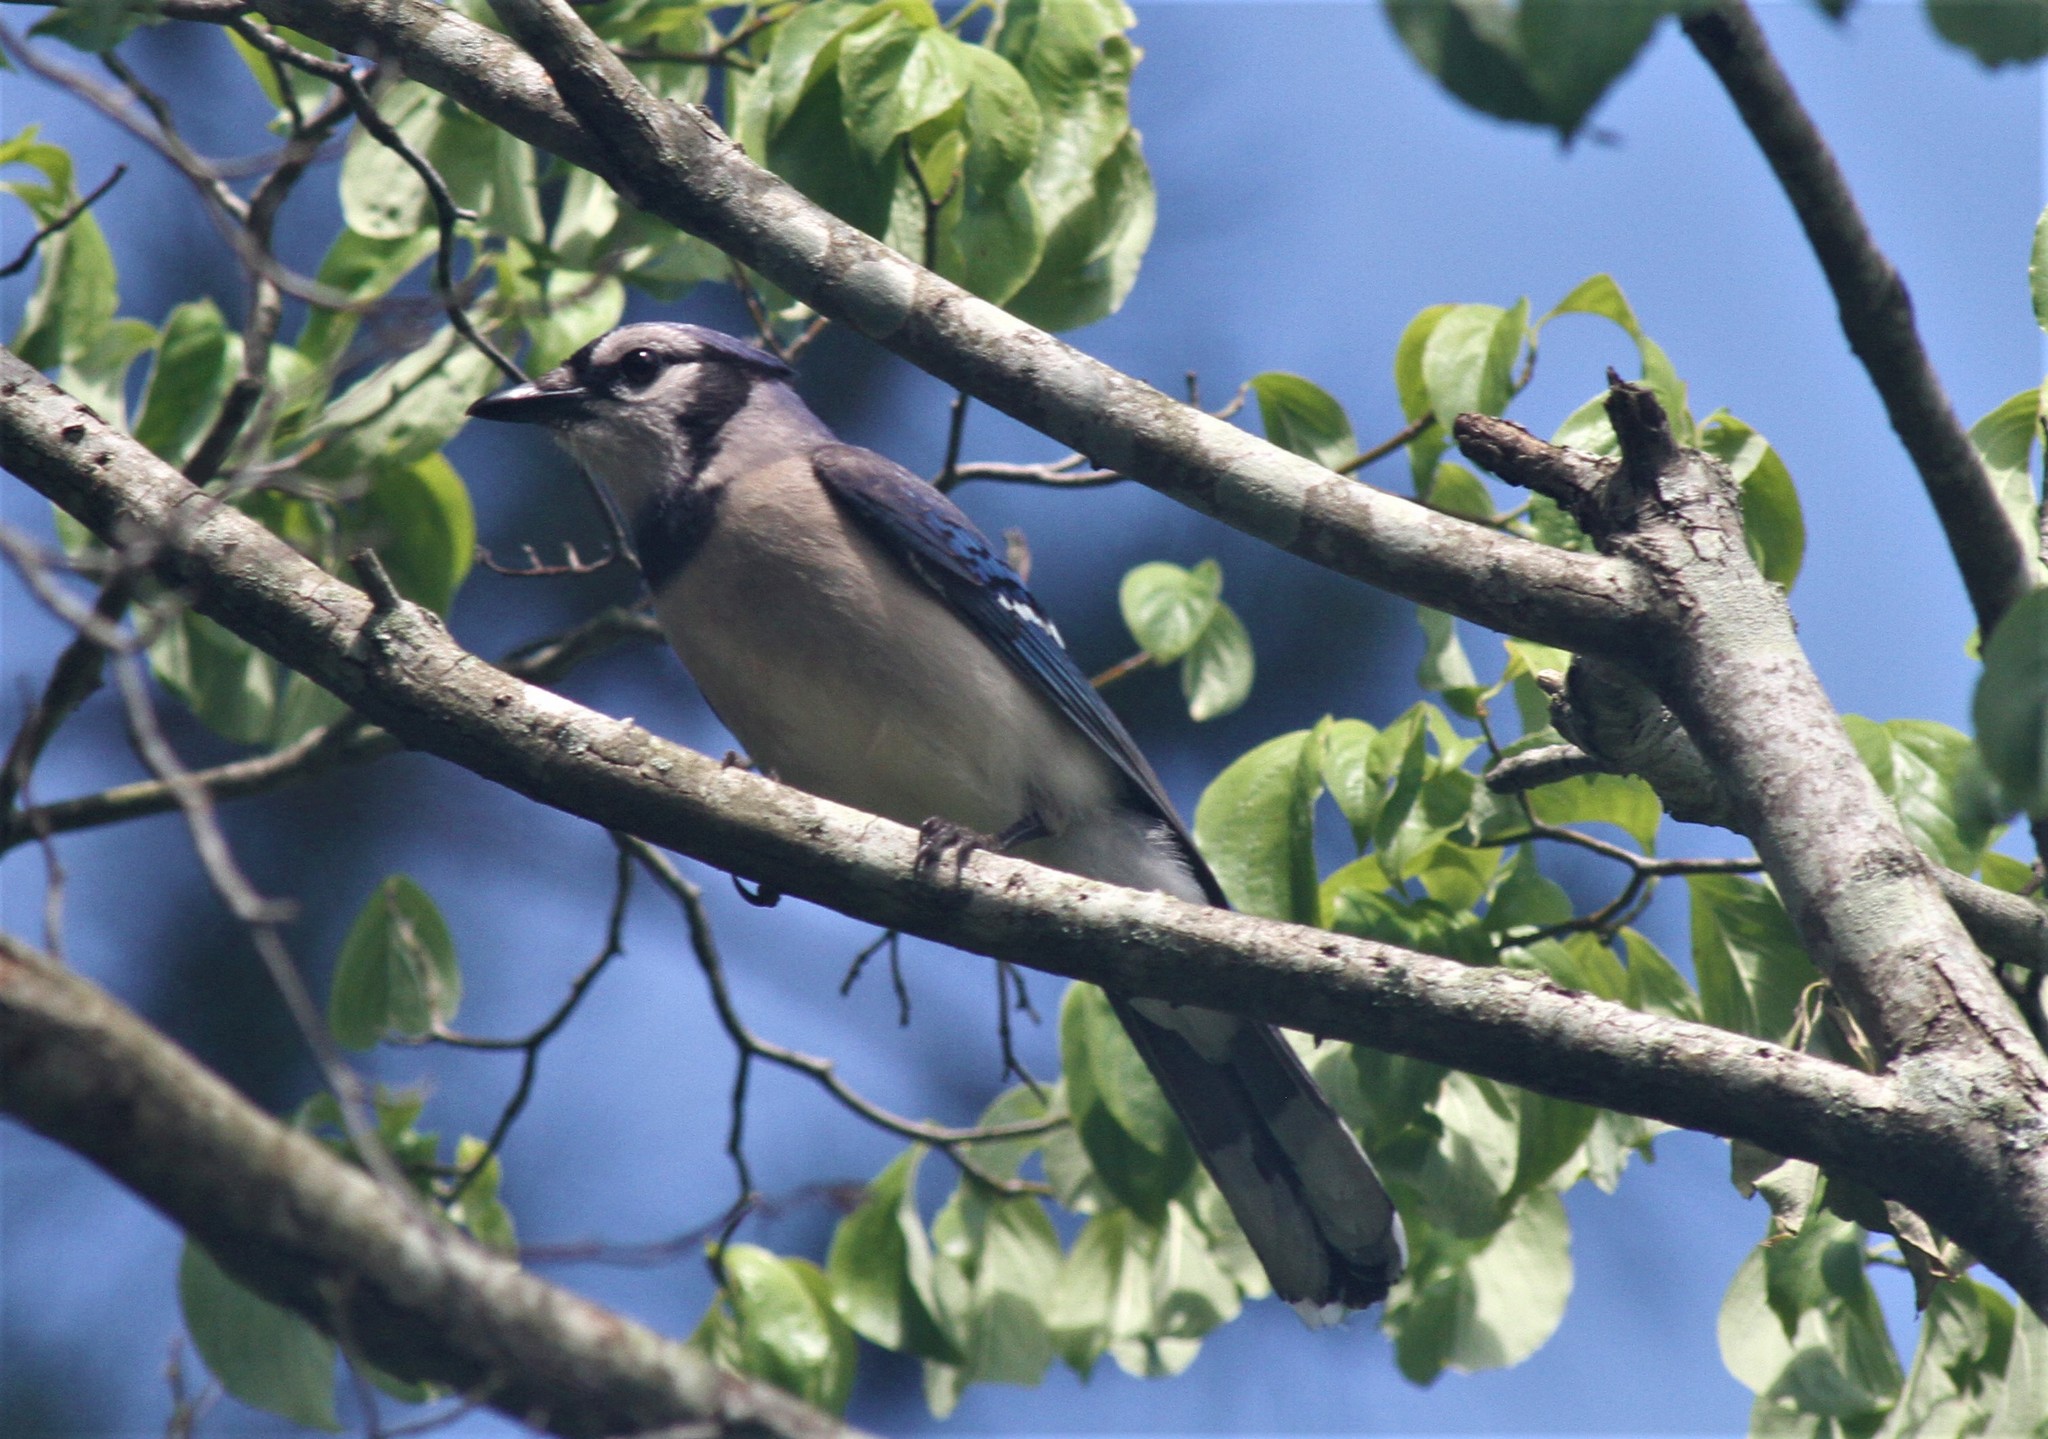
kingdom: Animalia
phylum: Chordata
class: Aves
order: Passeriformes
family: Corvidae
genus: Cyanocitta
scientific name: Cyanocitta cristata
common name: Blue jay
